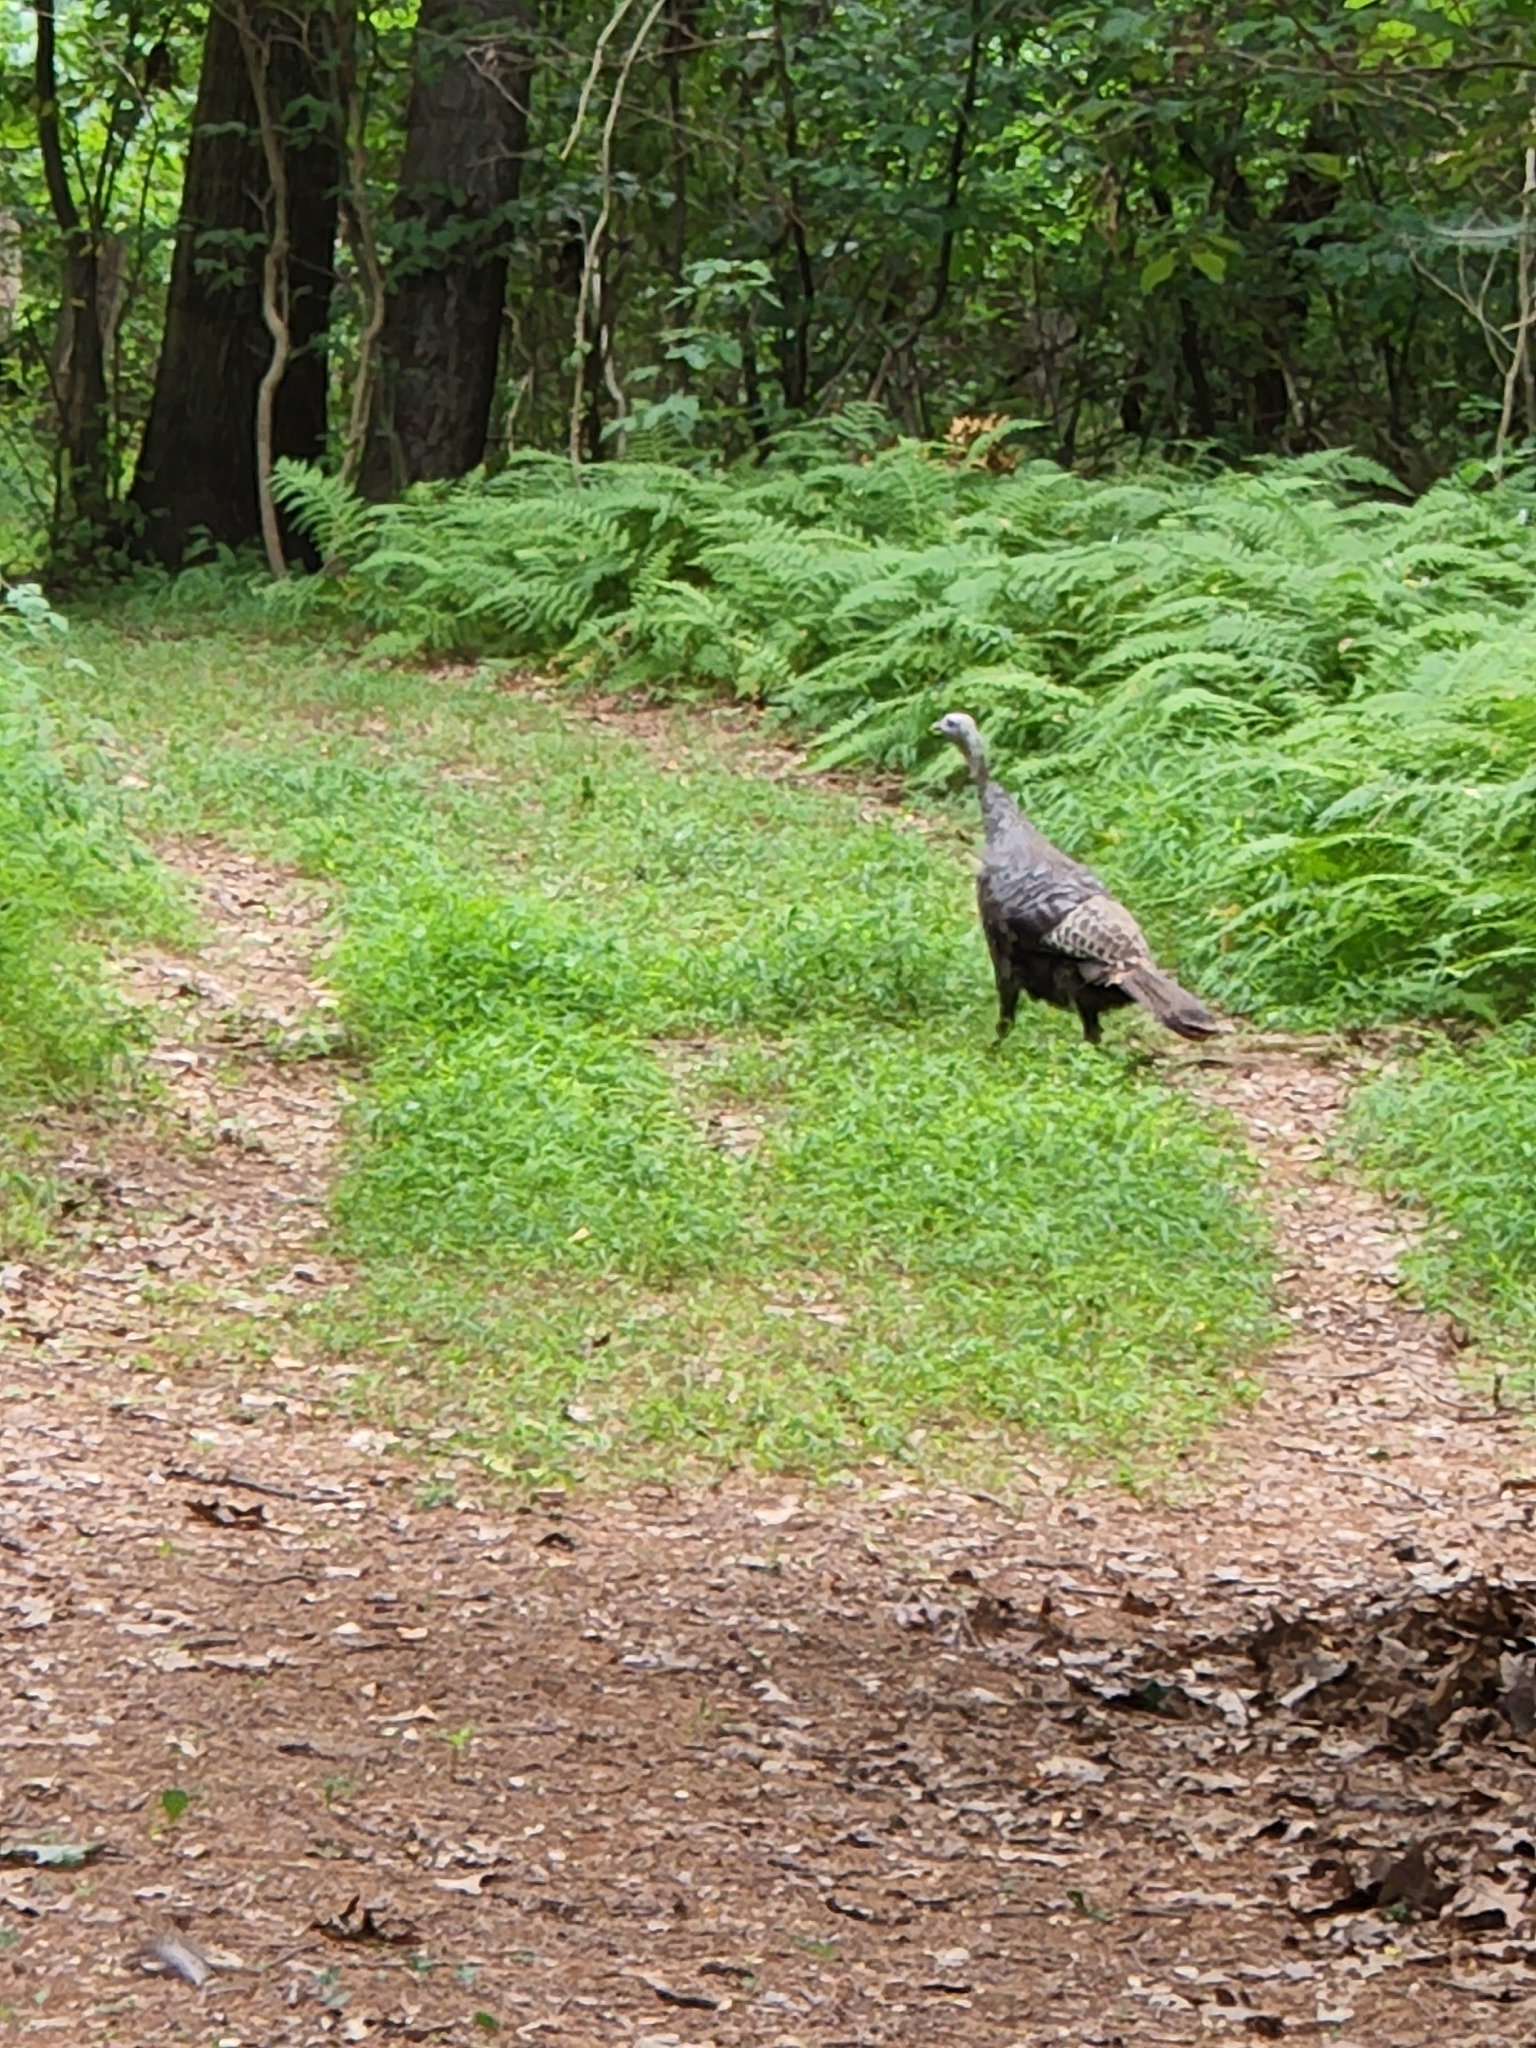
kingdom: Animalia
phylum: Chordata
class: Aves
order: Galliformes
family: Phasianidae
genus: Meleagris
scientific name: Meleagris gallopavo
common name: Wild turkey
